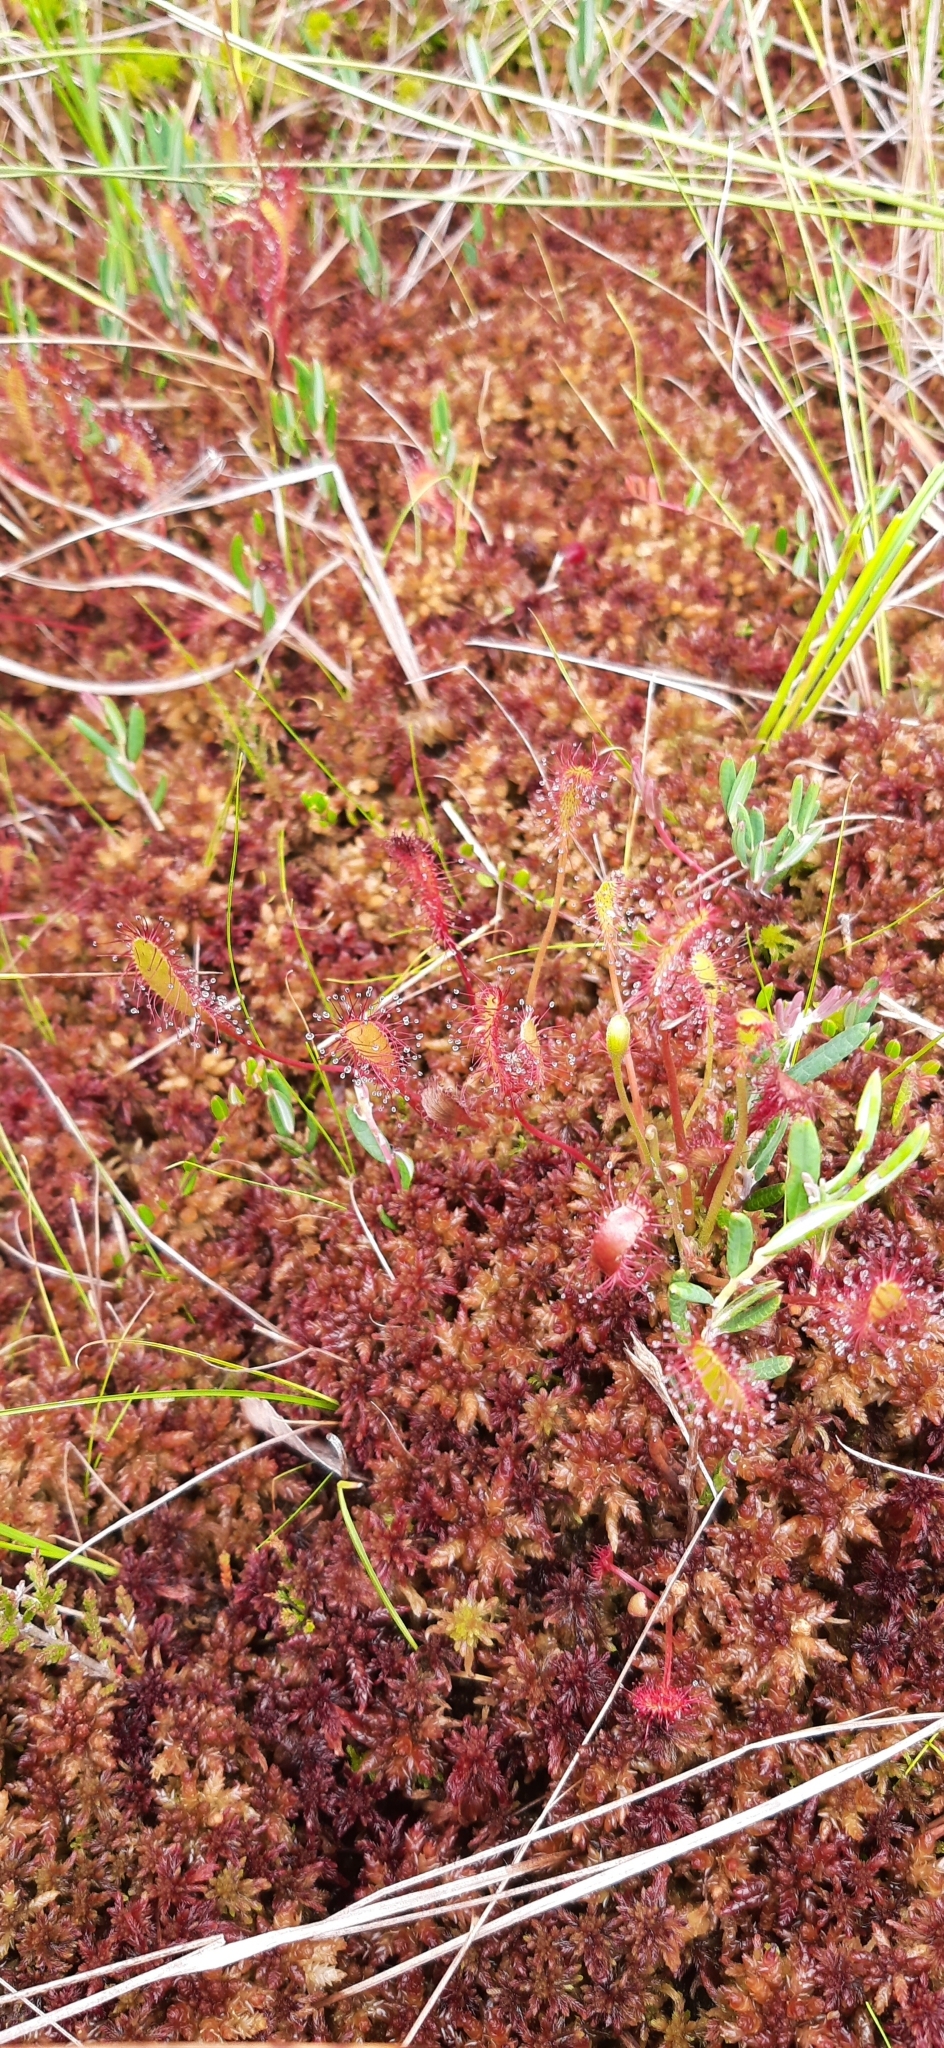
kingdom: Plantae
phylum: Tracheophyta
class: Magnoliopsida
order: Caryophyllales
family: Droseraceae
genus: Drosera
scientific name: Drosera anglica
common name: Great sundew
